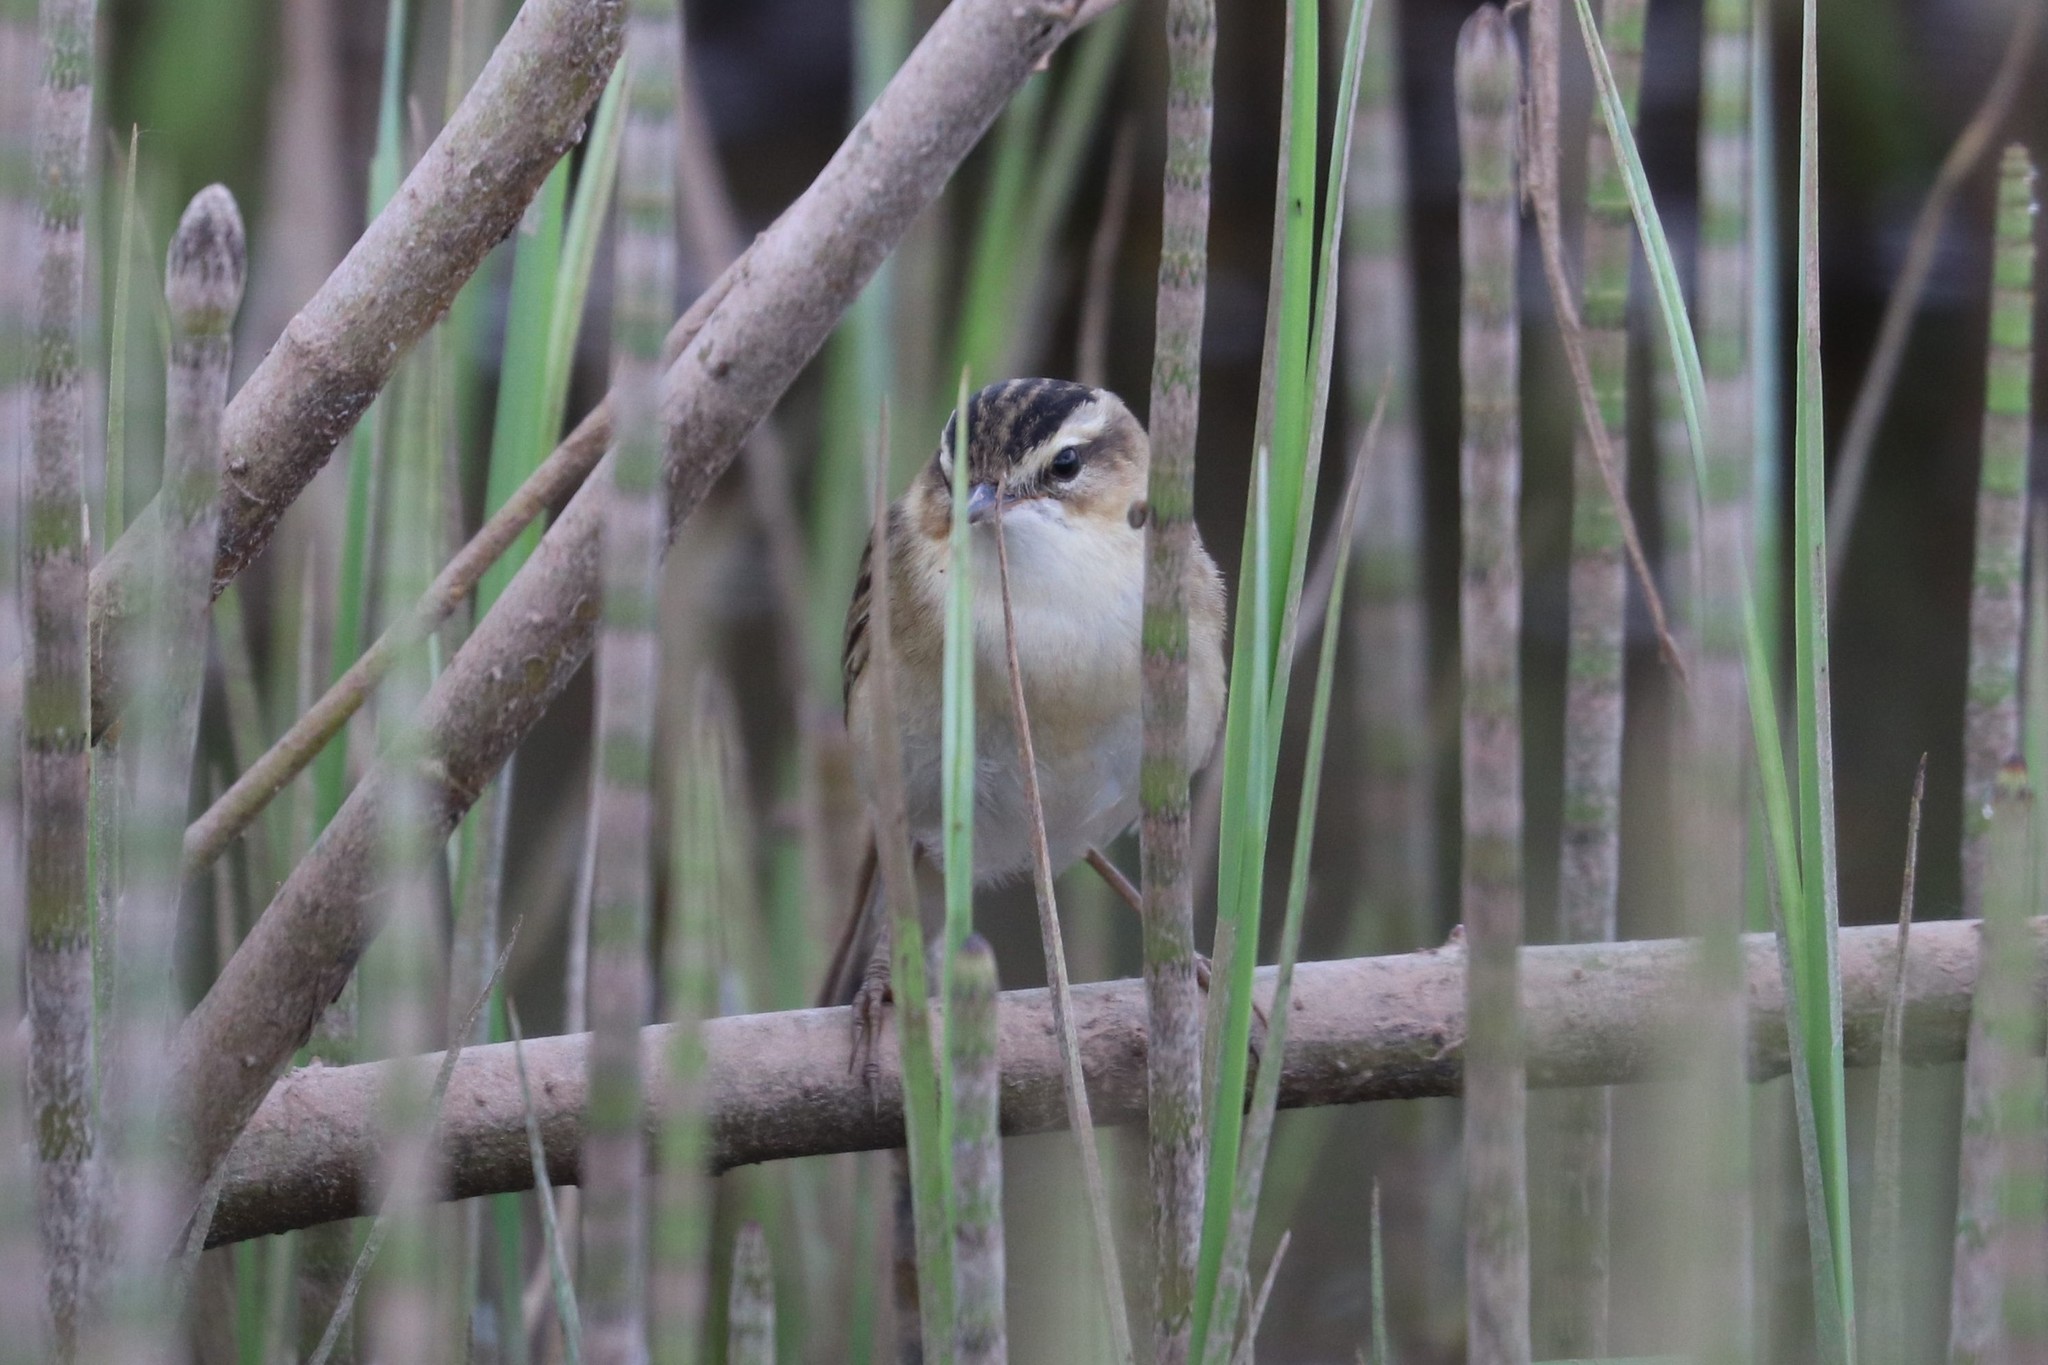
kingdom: Animalia
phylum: Chordata
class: Aves
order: Passeriformes
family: Acrocephalidae
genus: Acrocephalus
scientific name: Acrocephalus schoenobaenus
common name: Sedge warbler
